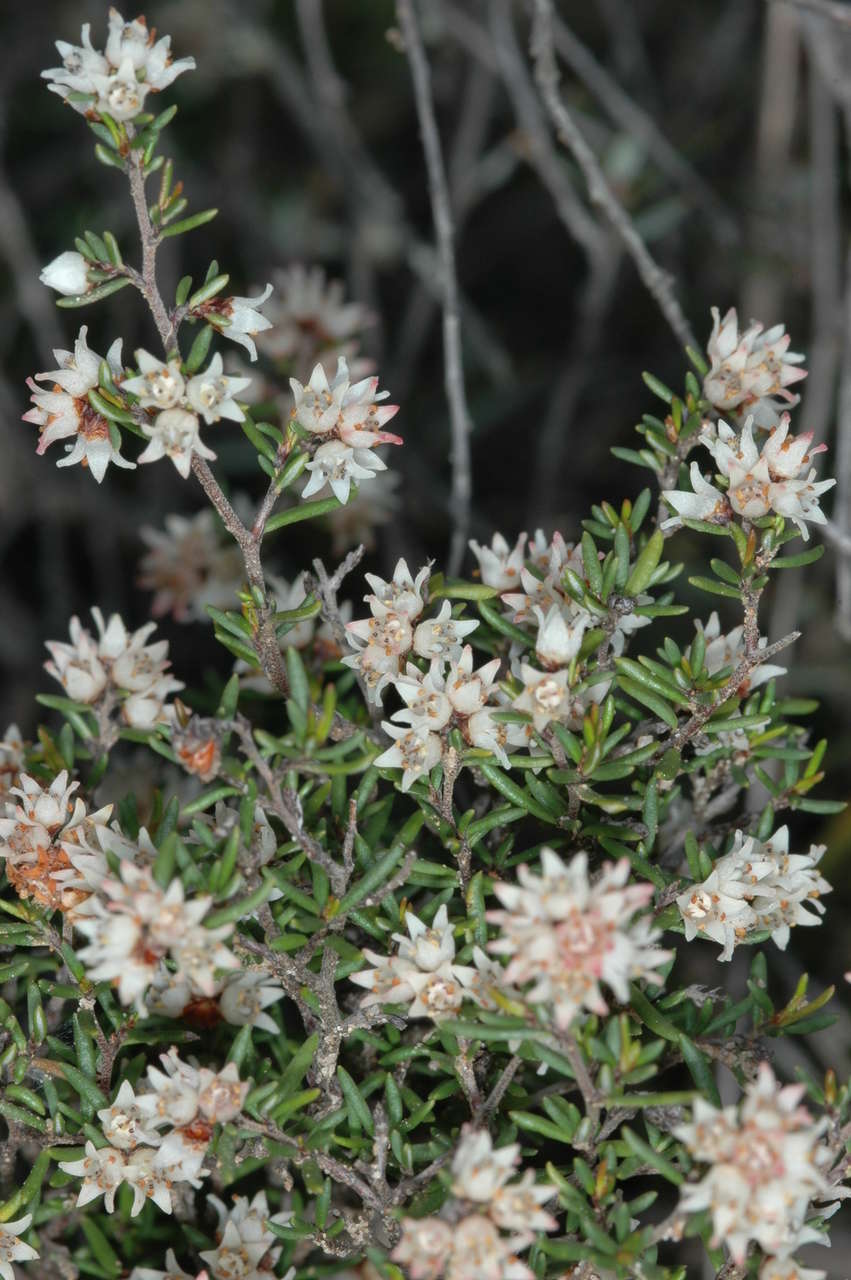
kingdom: Plantae
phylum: Tracheophyta
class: Magnoliopsida
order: Rosales
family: Rhamnaceae
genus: Cryptandra
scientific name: Cryptandra tomentosa
